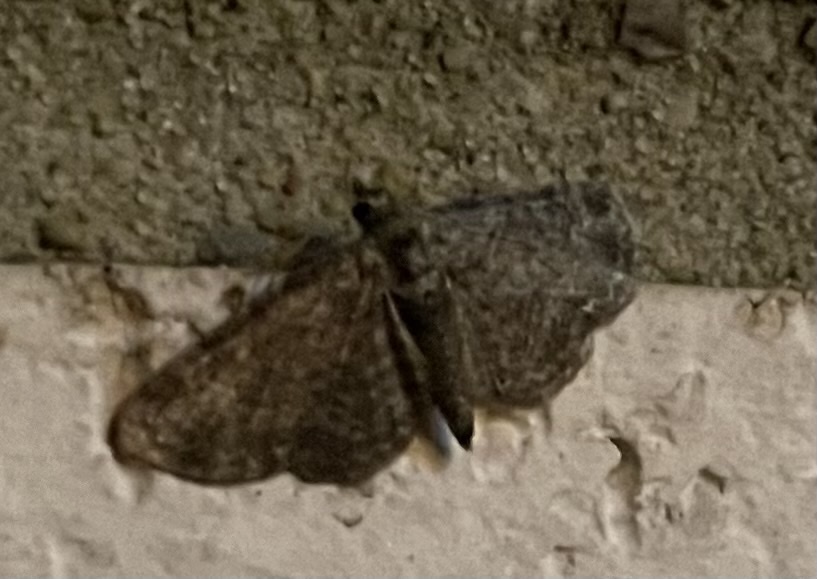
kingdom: Animalia
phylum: Arthropoda
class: Insecta
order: Lepidoptera
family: Geometridae
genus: Pasiphila
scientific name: Pasiphila rectangulata
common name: Green pug
